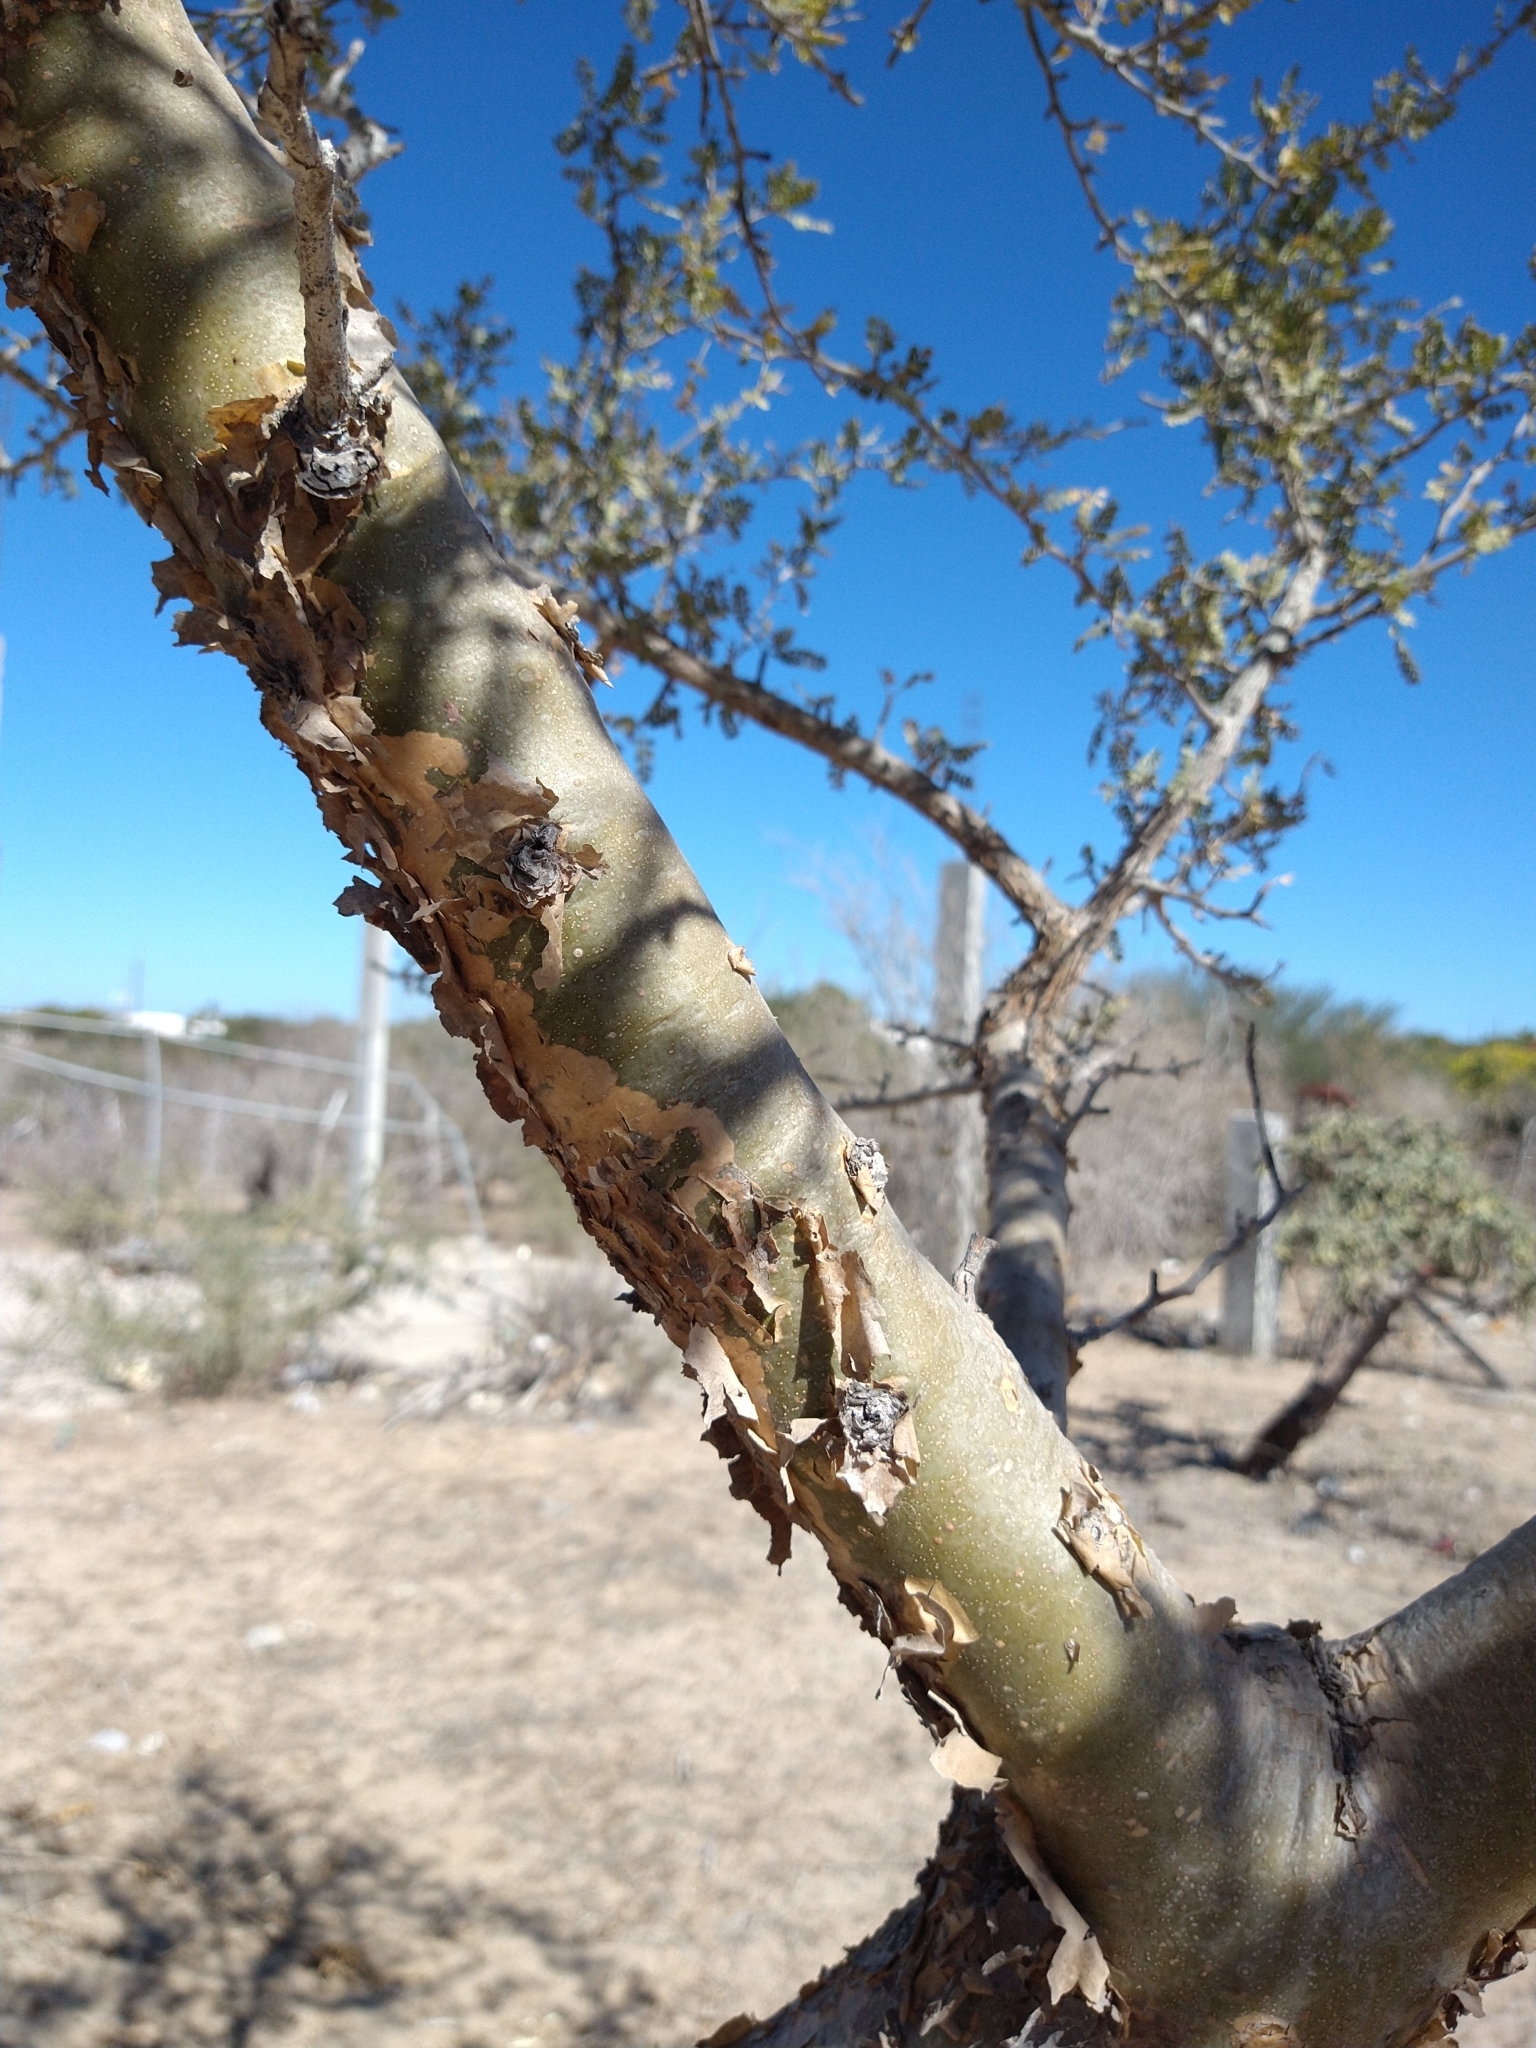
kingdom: Plantae
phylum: Tracheophyta
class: Magnoliopsida
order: Sapindales
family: Burseraceae
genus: Bursera
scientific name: Bursera exequielii
